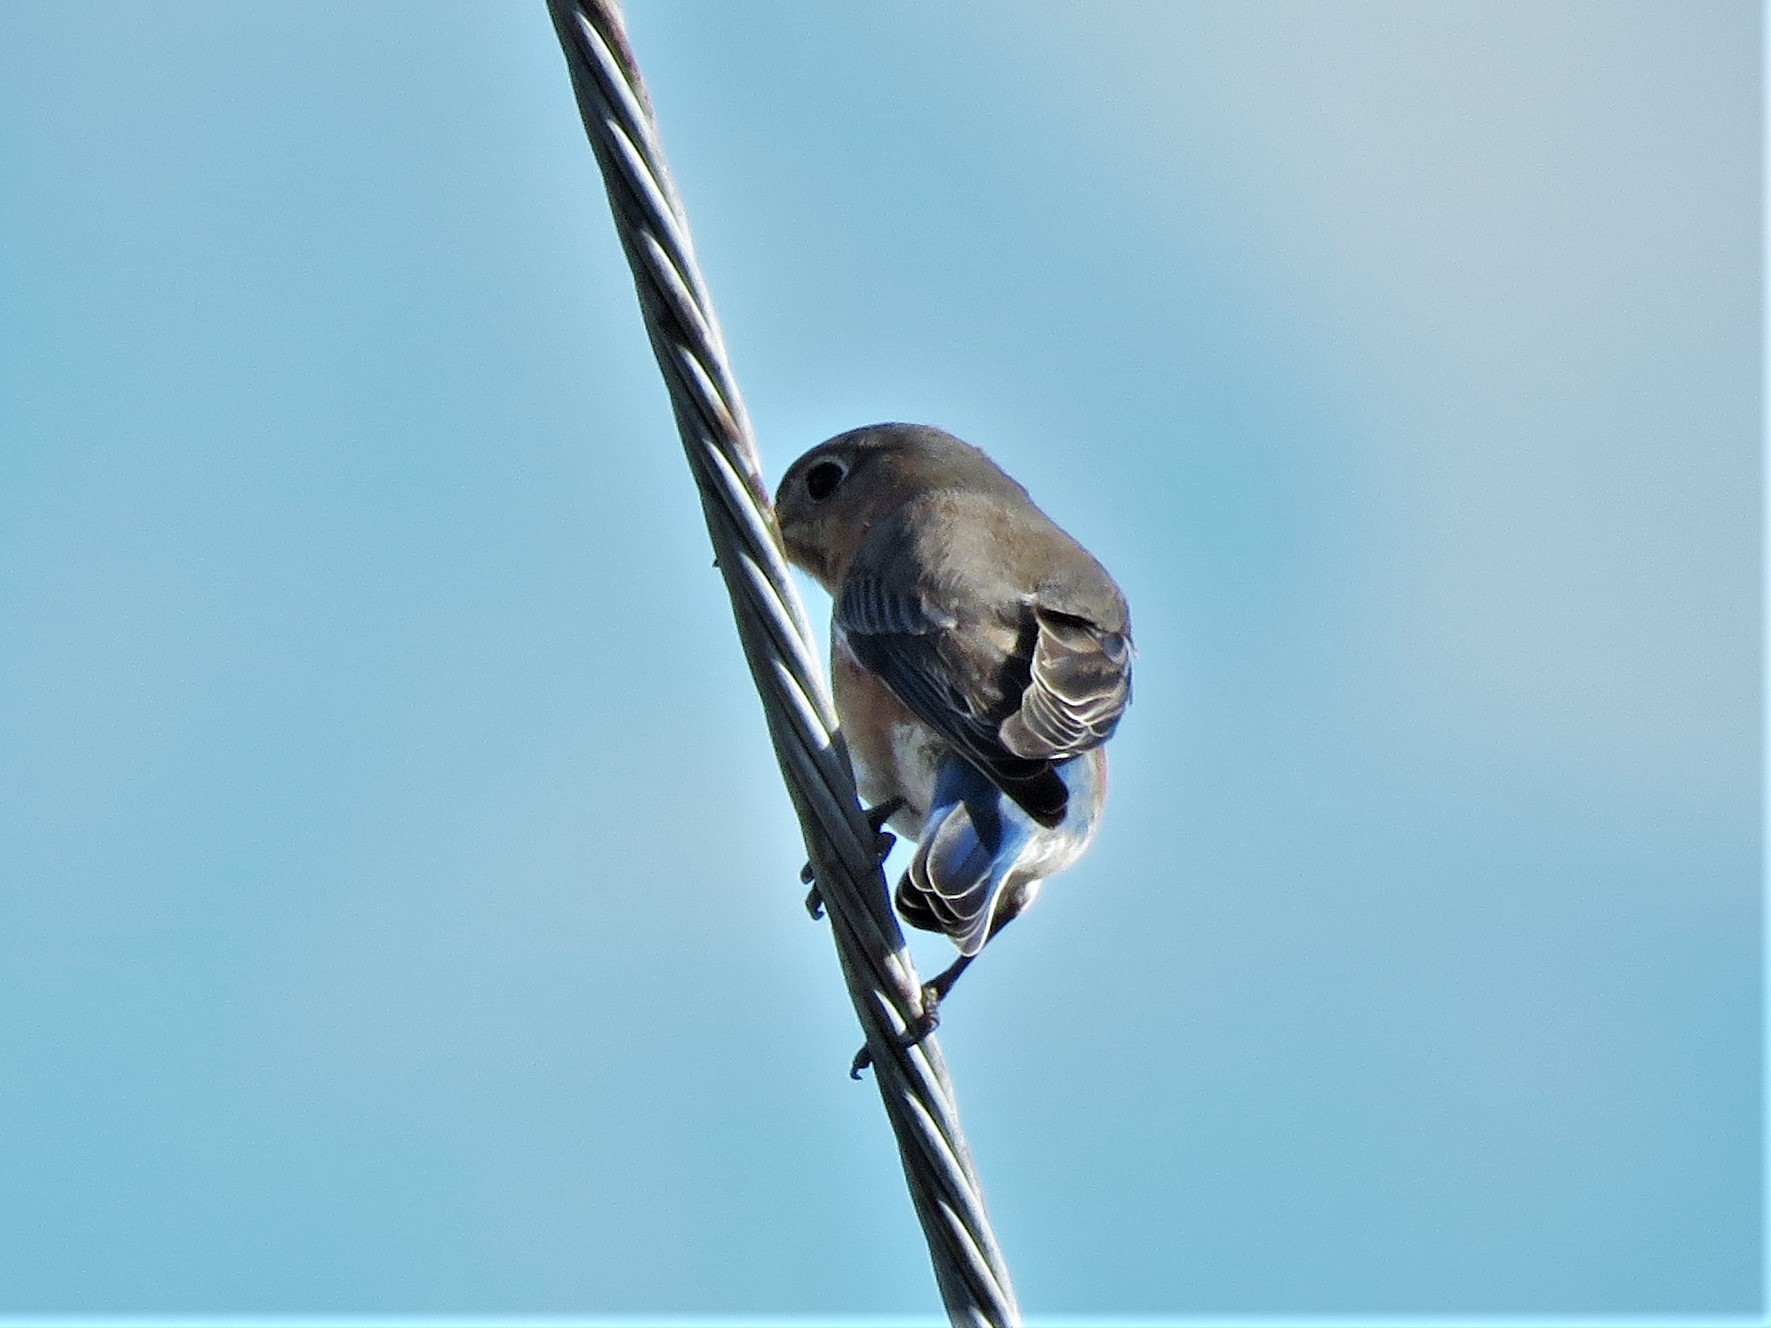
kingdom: Animalia
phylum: Chordata
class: Aves
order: Passeriformes
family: Turdidae
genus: Sialia
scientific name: Sialia sialis
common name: Eastern bluebird
